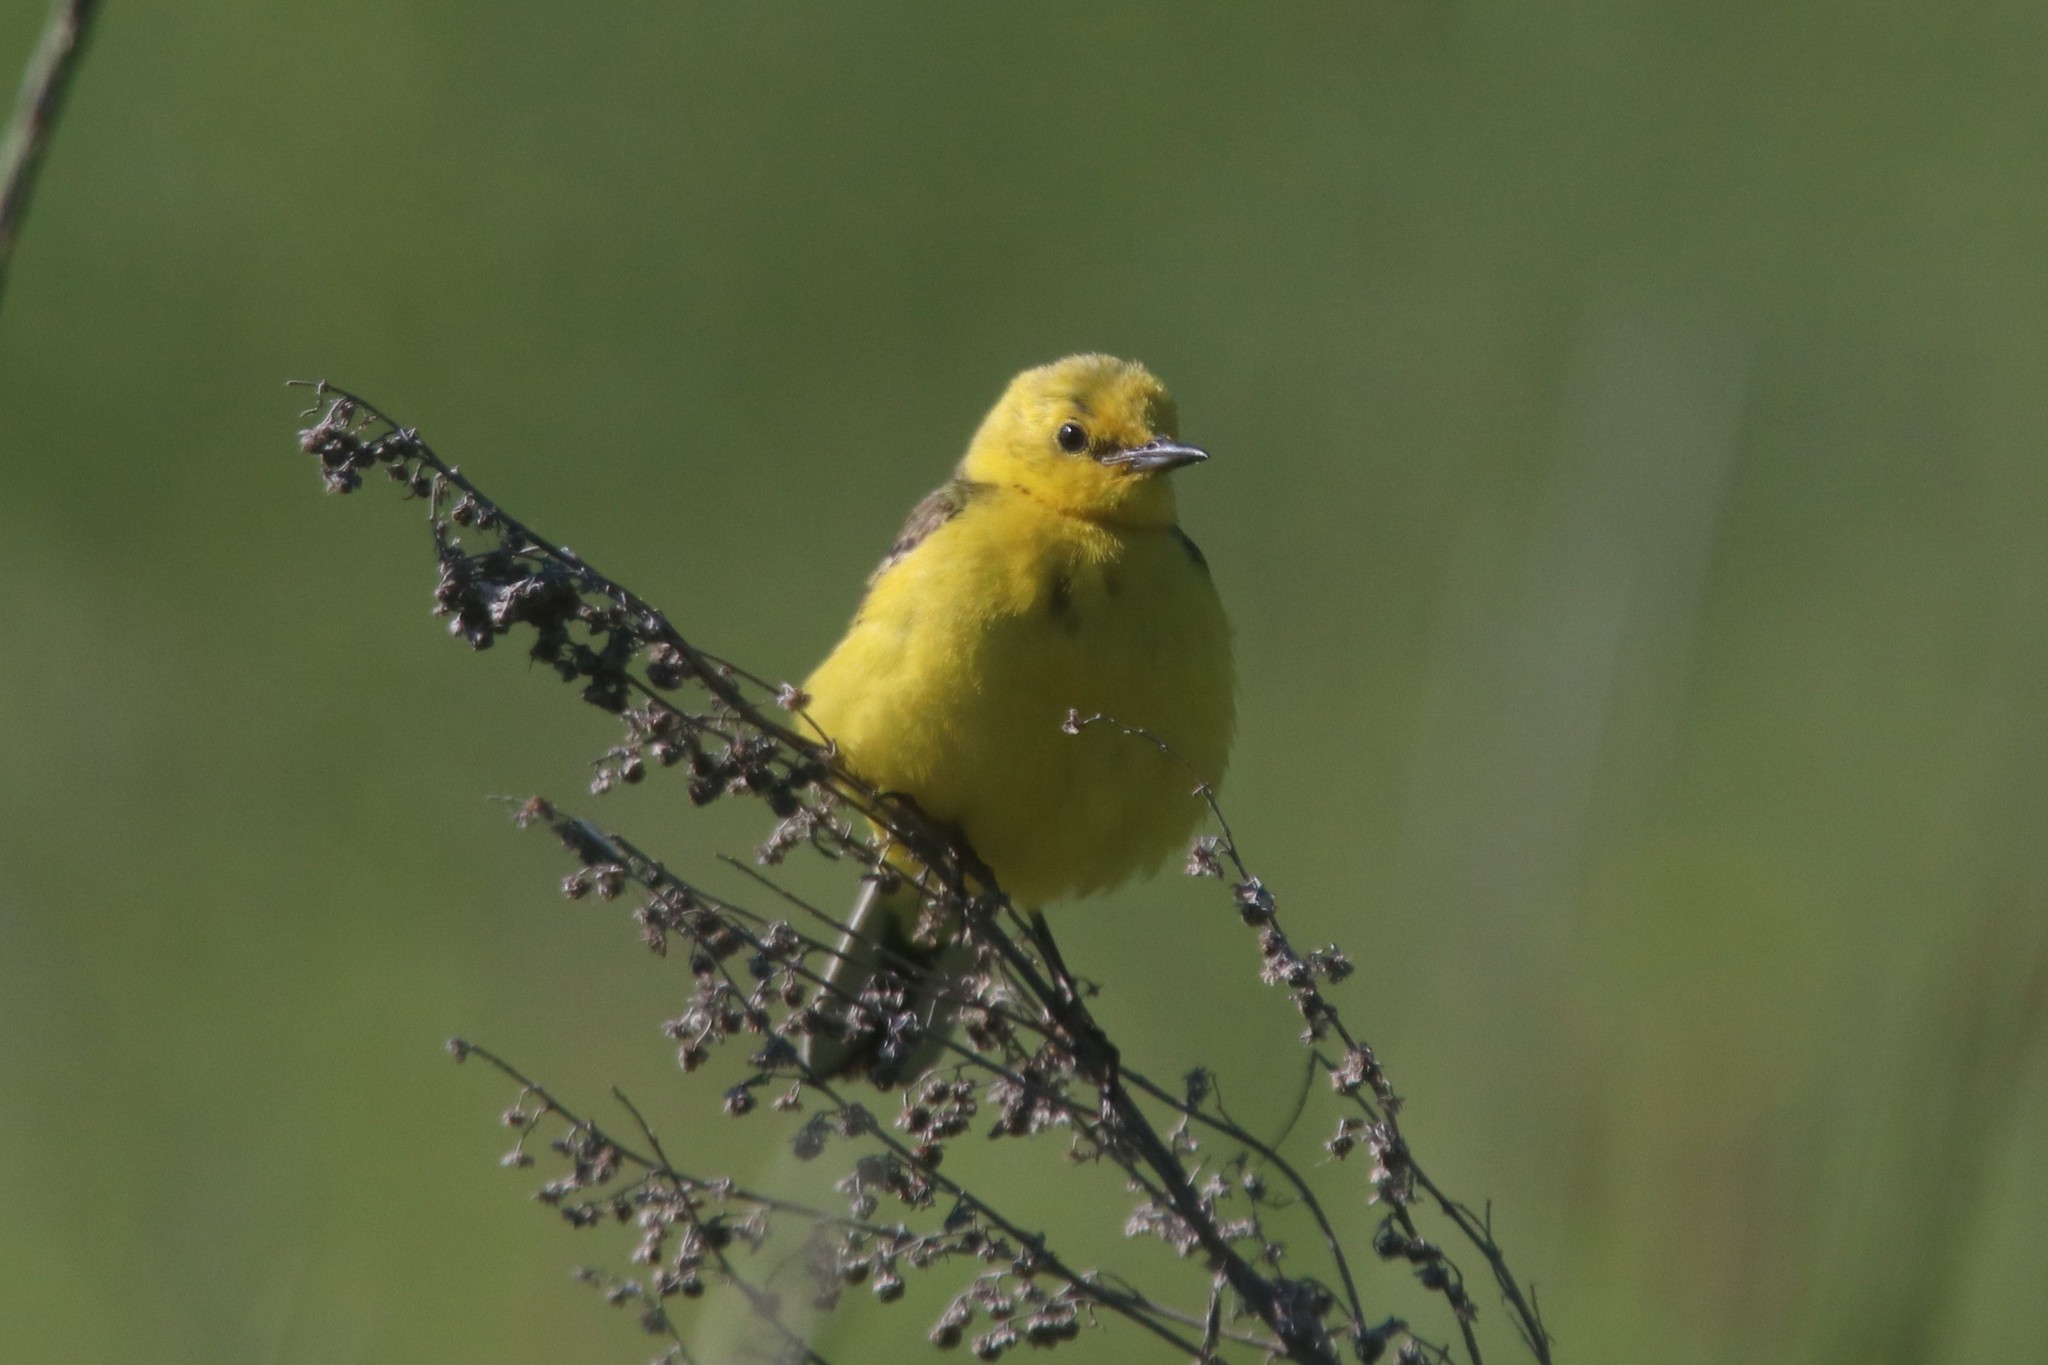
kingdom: Animalia
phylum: Chordata
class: Aves
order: Passeriformes
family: Motacillidae
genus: Motacilla
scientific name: Motacilla citreola
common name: Citrine wagtail
